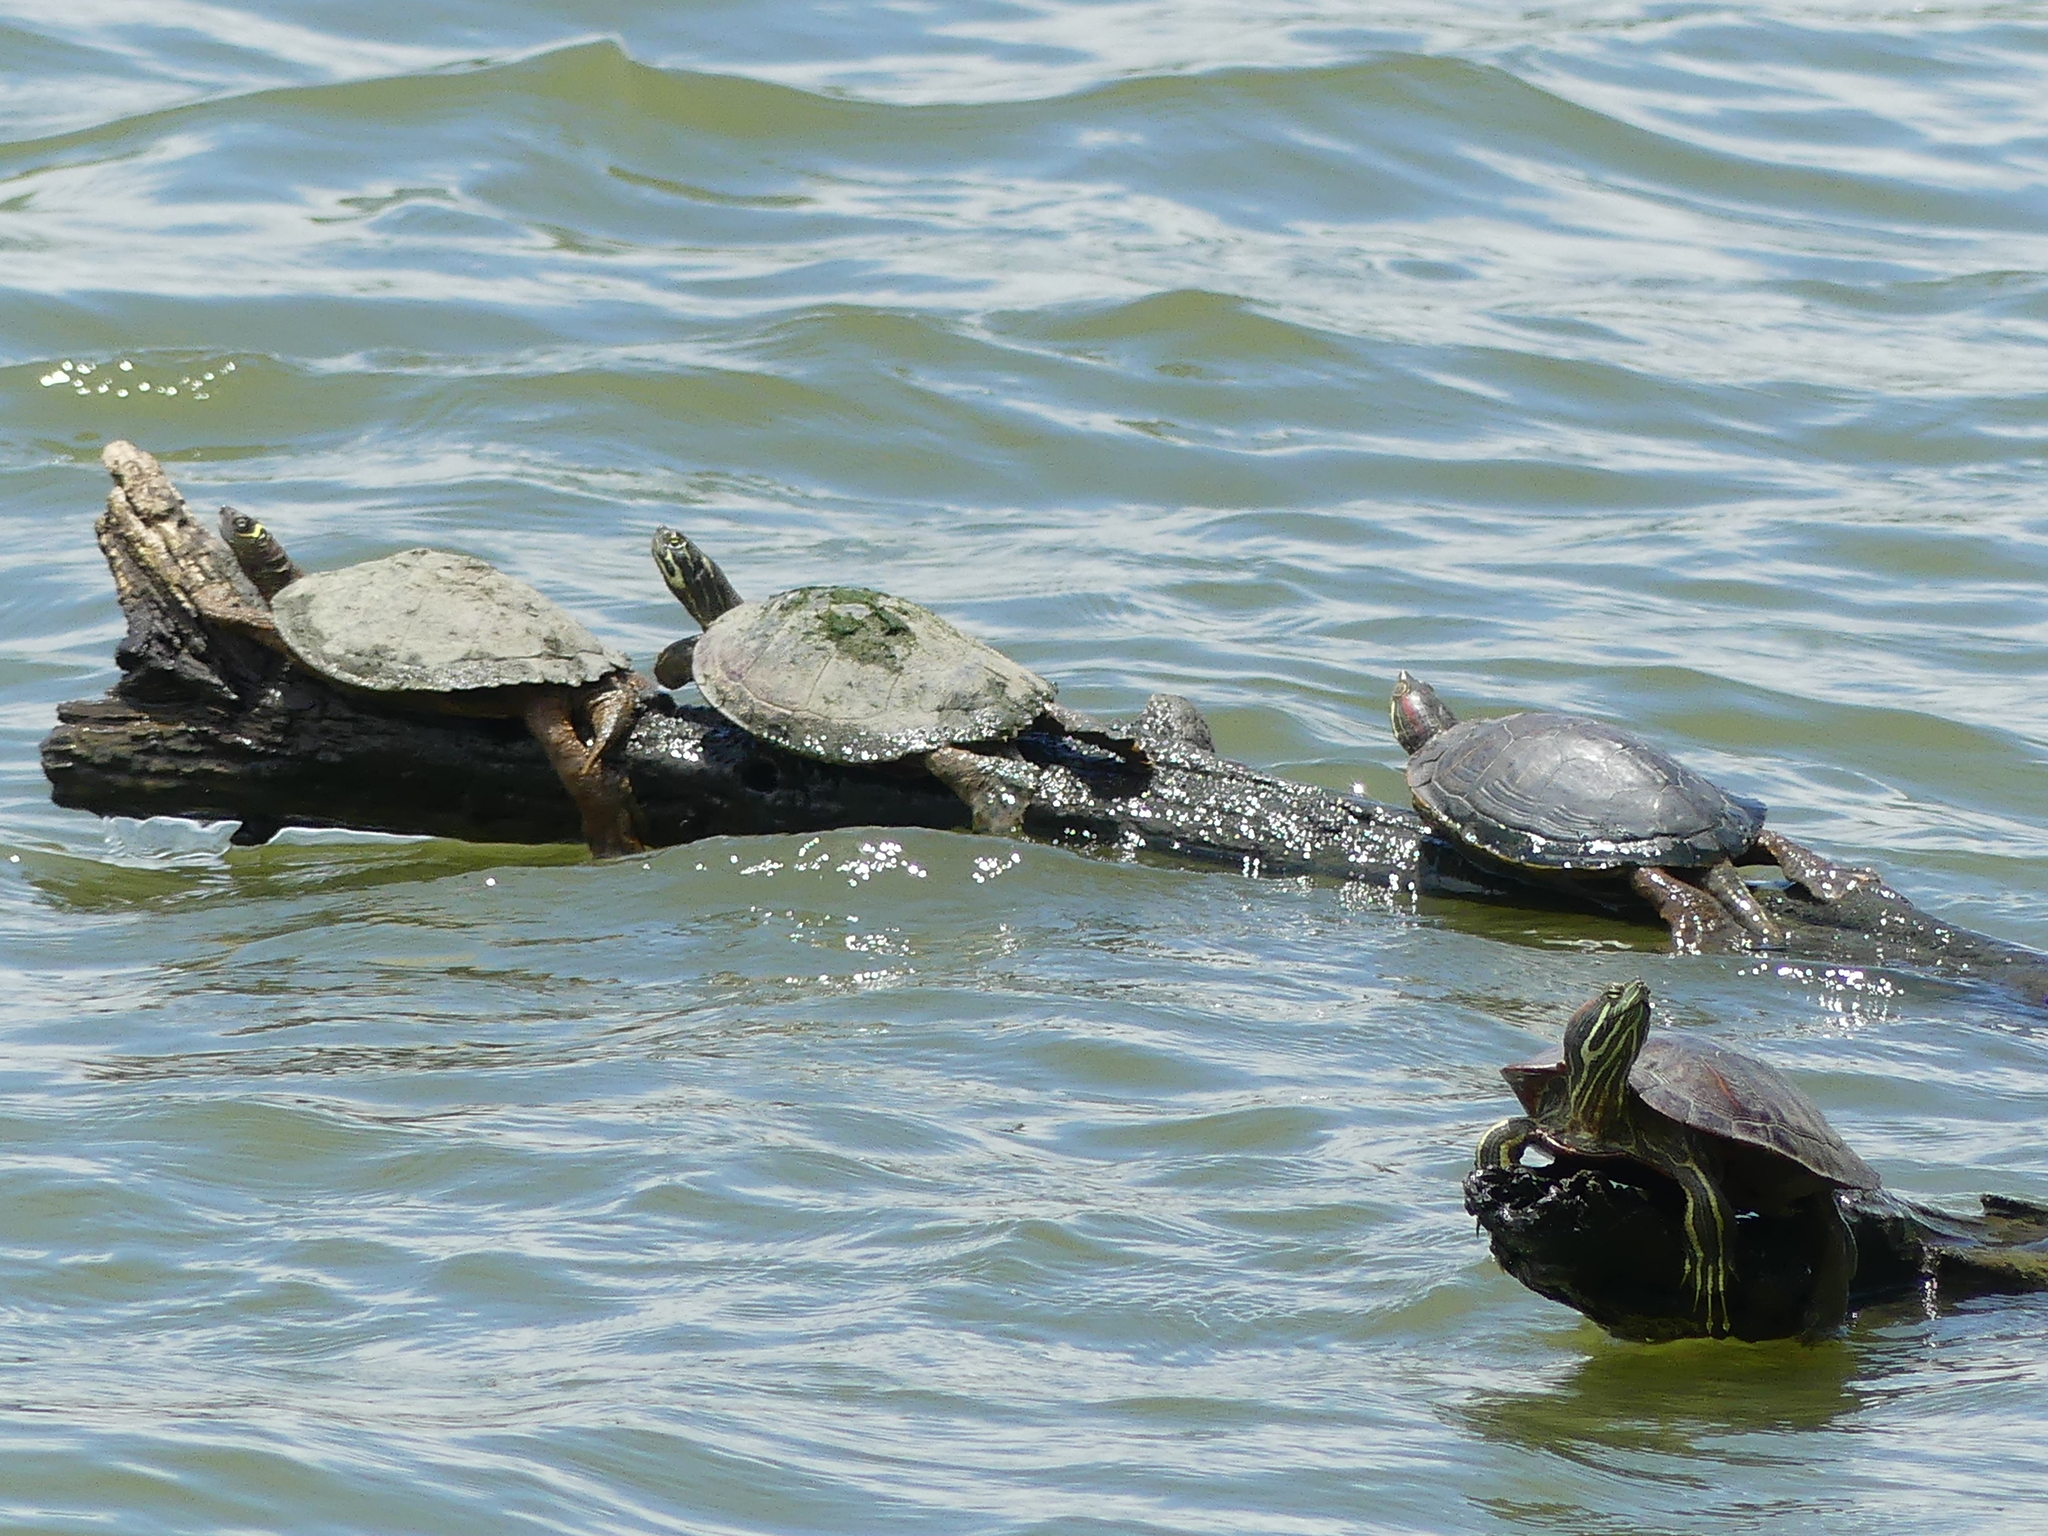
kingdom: Animalia
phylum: Chordata
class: Testudines
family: Emydidae
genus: Graptemys
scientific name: Graptemys pseudogeographica
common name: False map turtle
